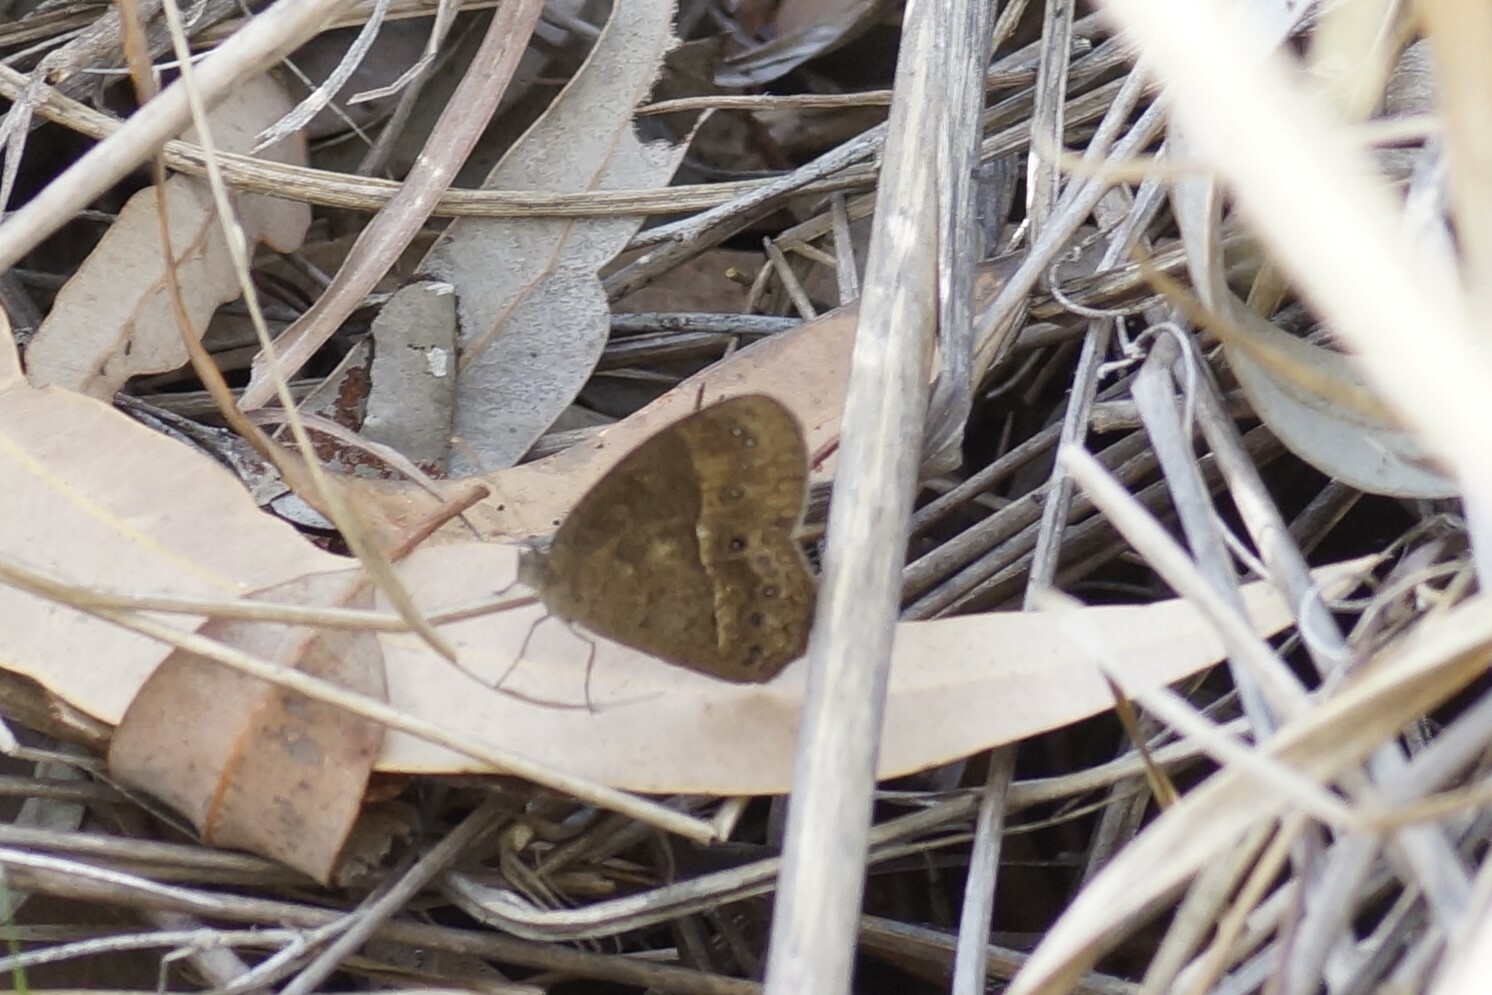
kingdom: Animalia
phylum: Arthropoda
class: Insecta
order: Lepidoptera
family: Nymphalidae
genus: Mycalesis
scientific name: Mycalesis perseus
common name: Dingy bushbrown
